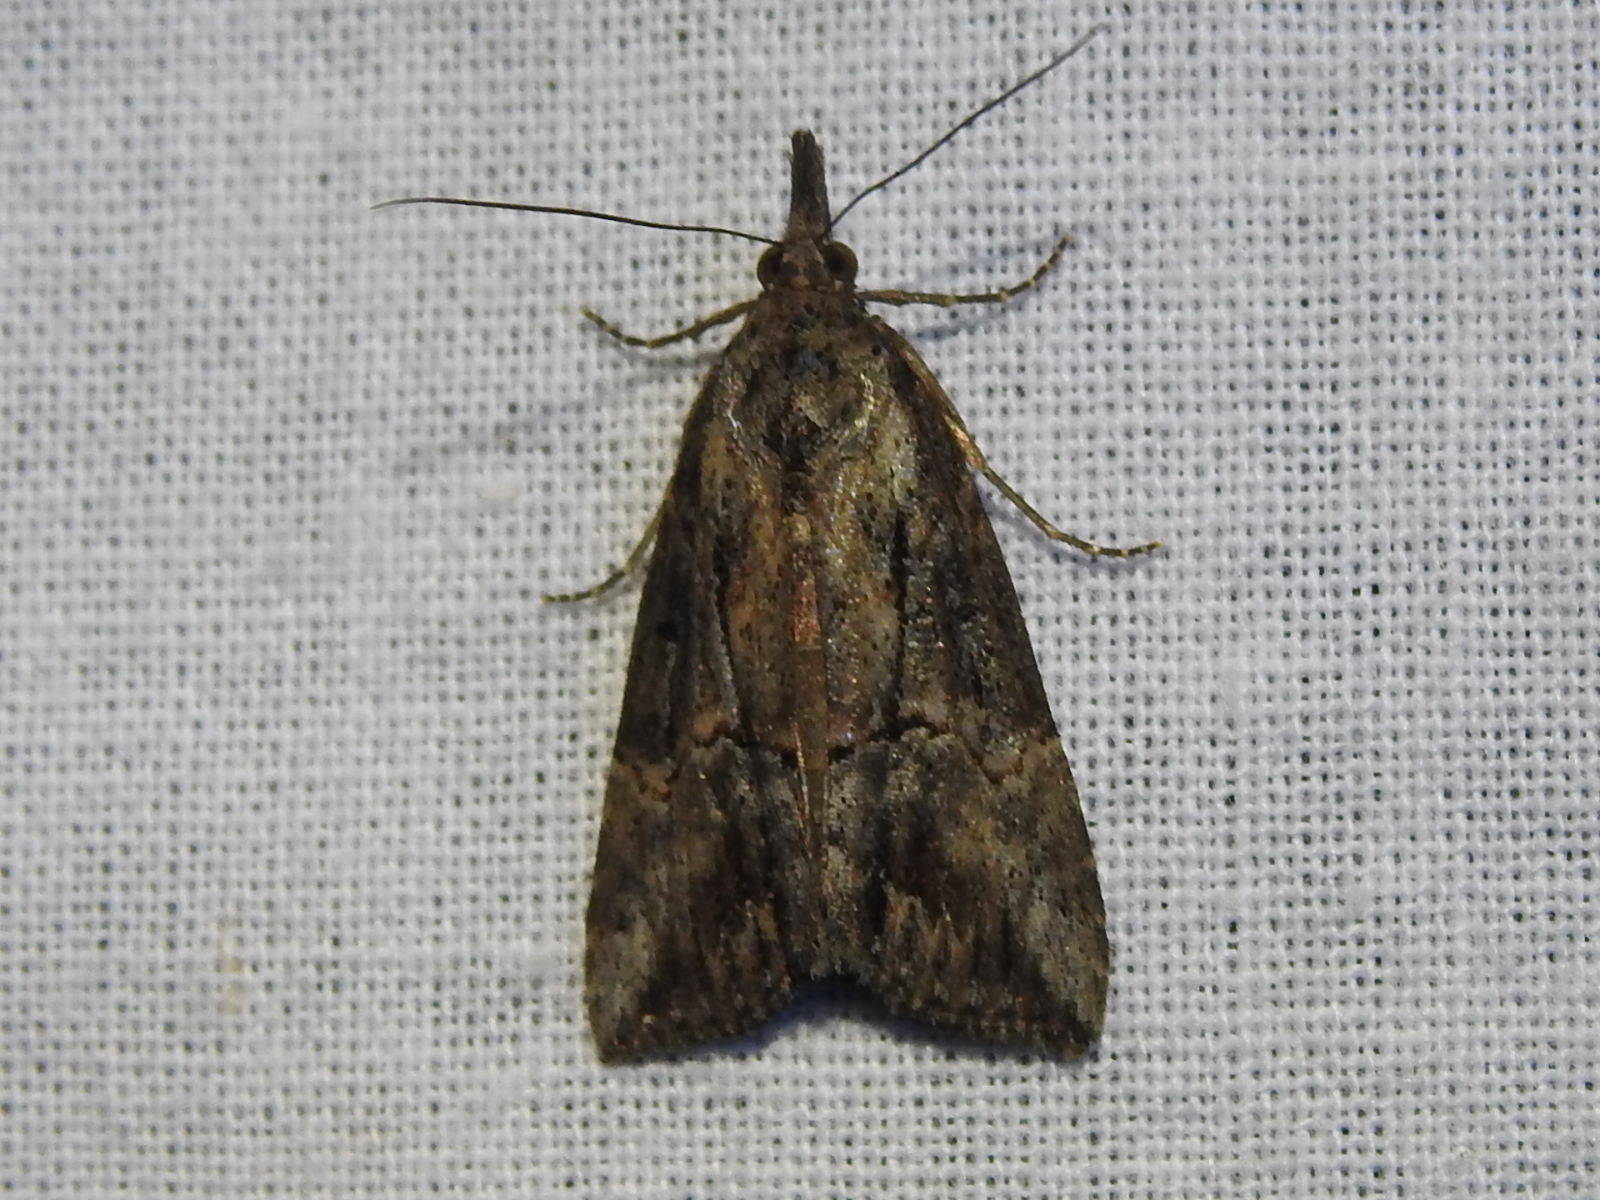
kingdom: Animalia
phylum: Arthropoda
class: Insecta
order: Lepidoptera
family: Erebidae
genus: Hypena
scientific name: Hypena scabra
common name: Green cloverworm
